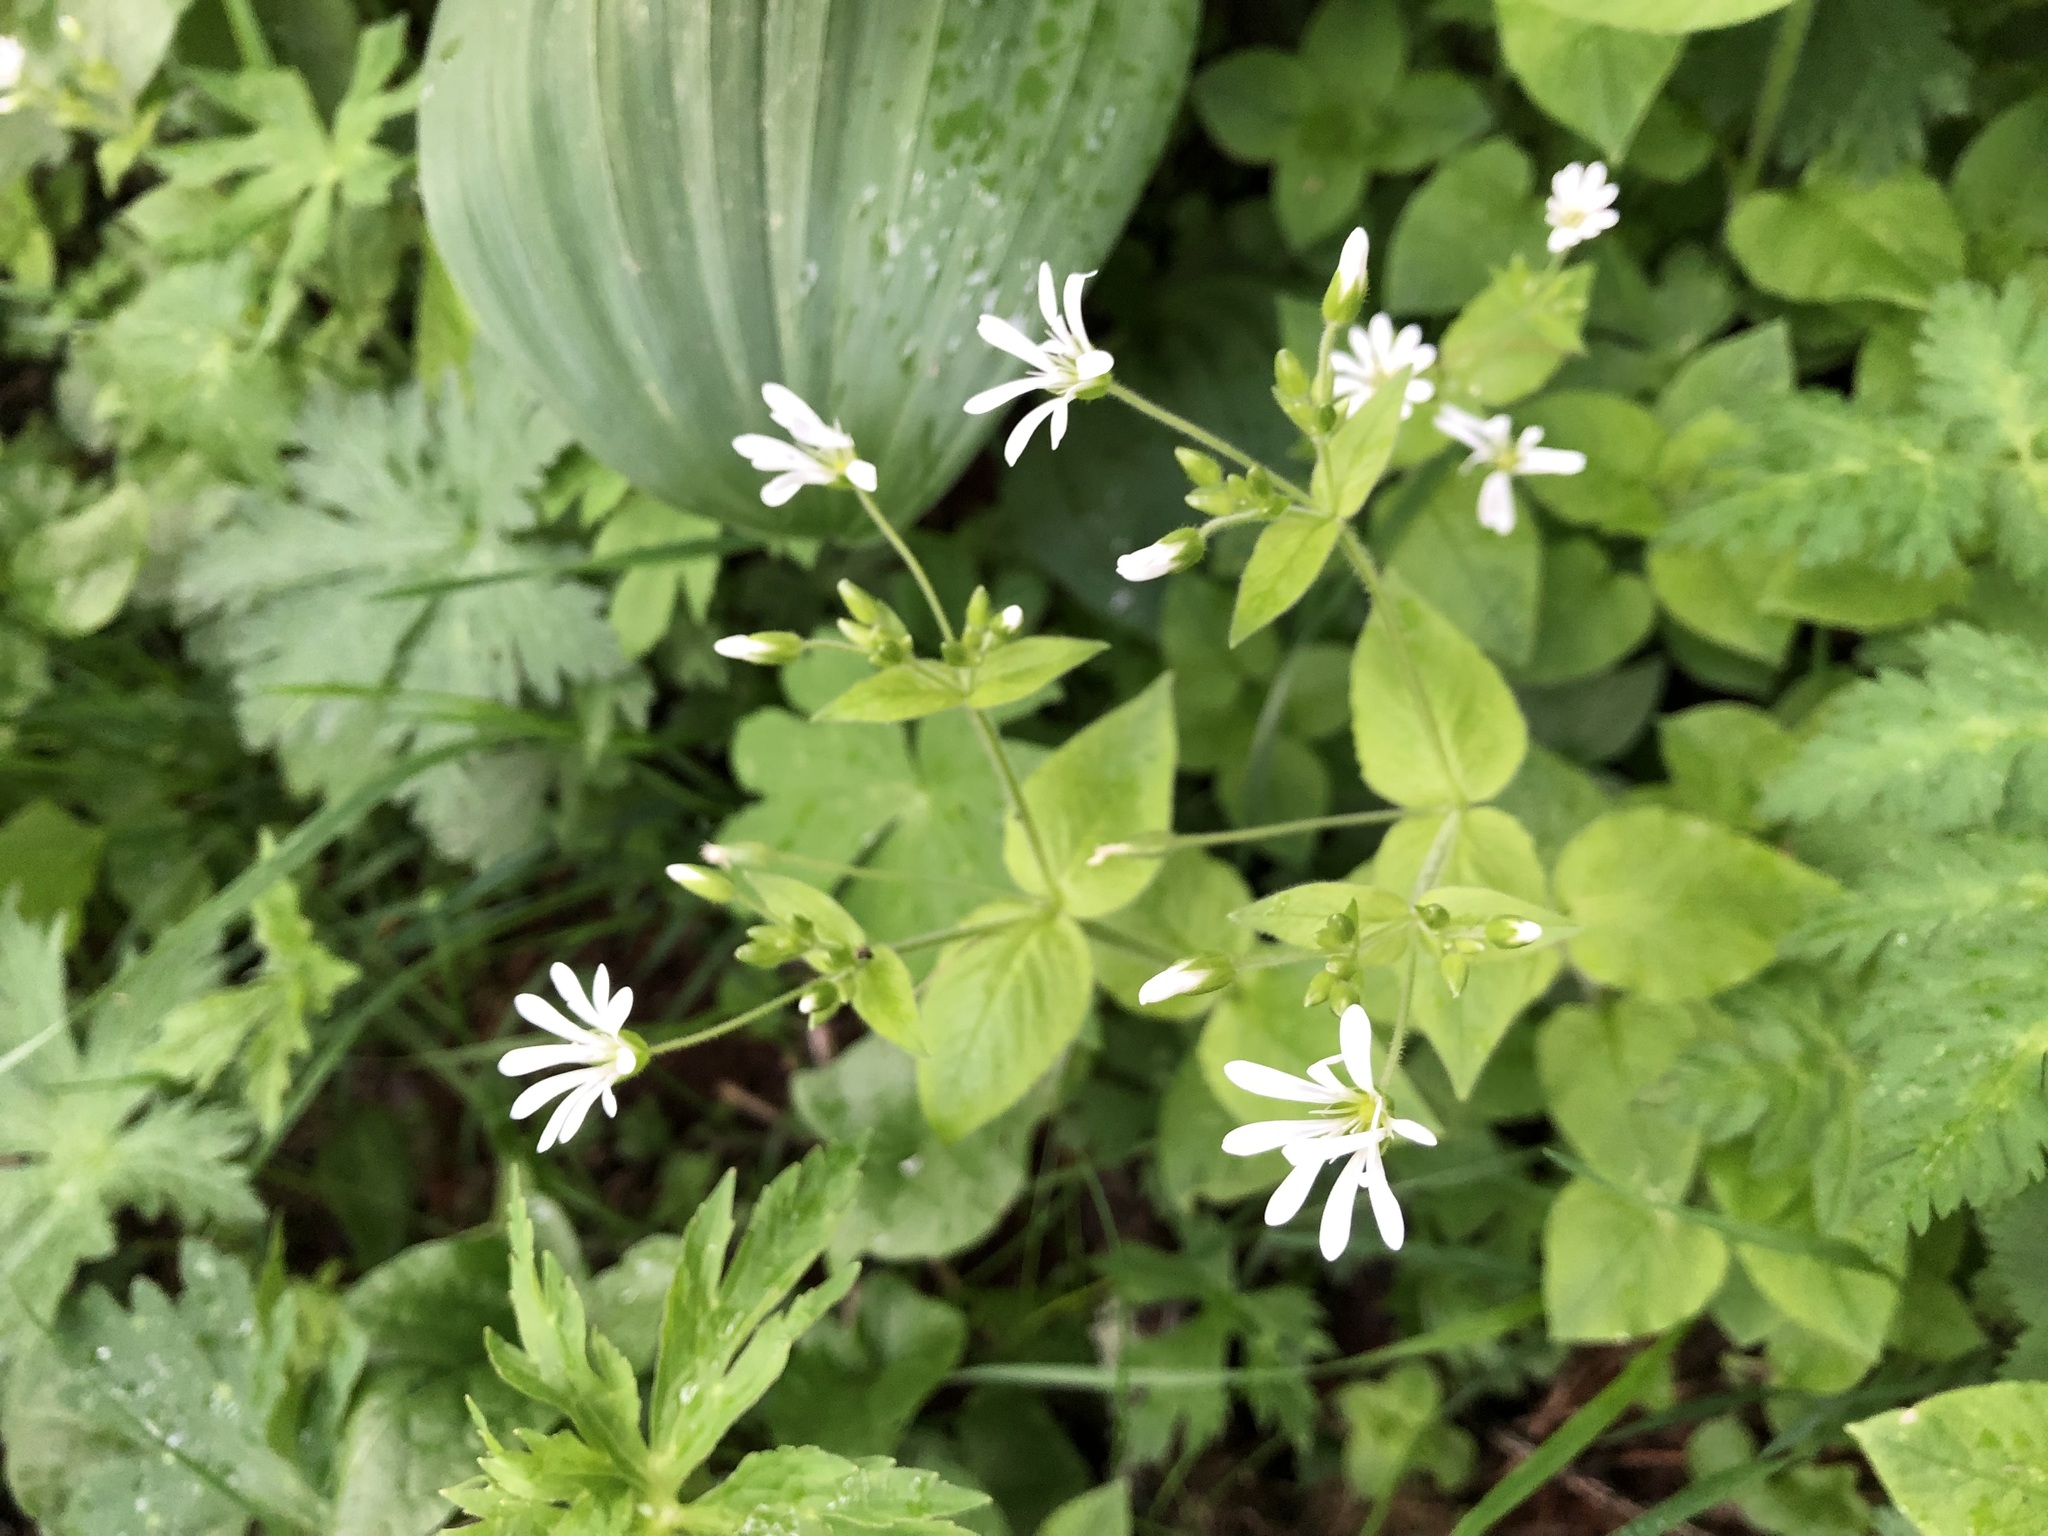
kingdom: Plantae
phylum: Tracheophyta
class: Magnoliopsida
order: Caryophyllales
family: Caryophyllaceae
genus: Stellaria
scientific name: Stellaria nemorum
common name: Wood stitchwort
